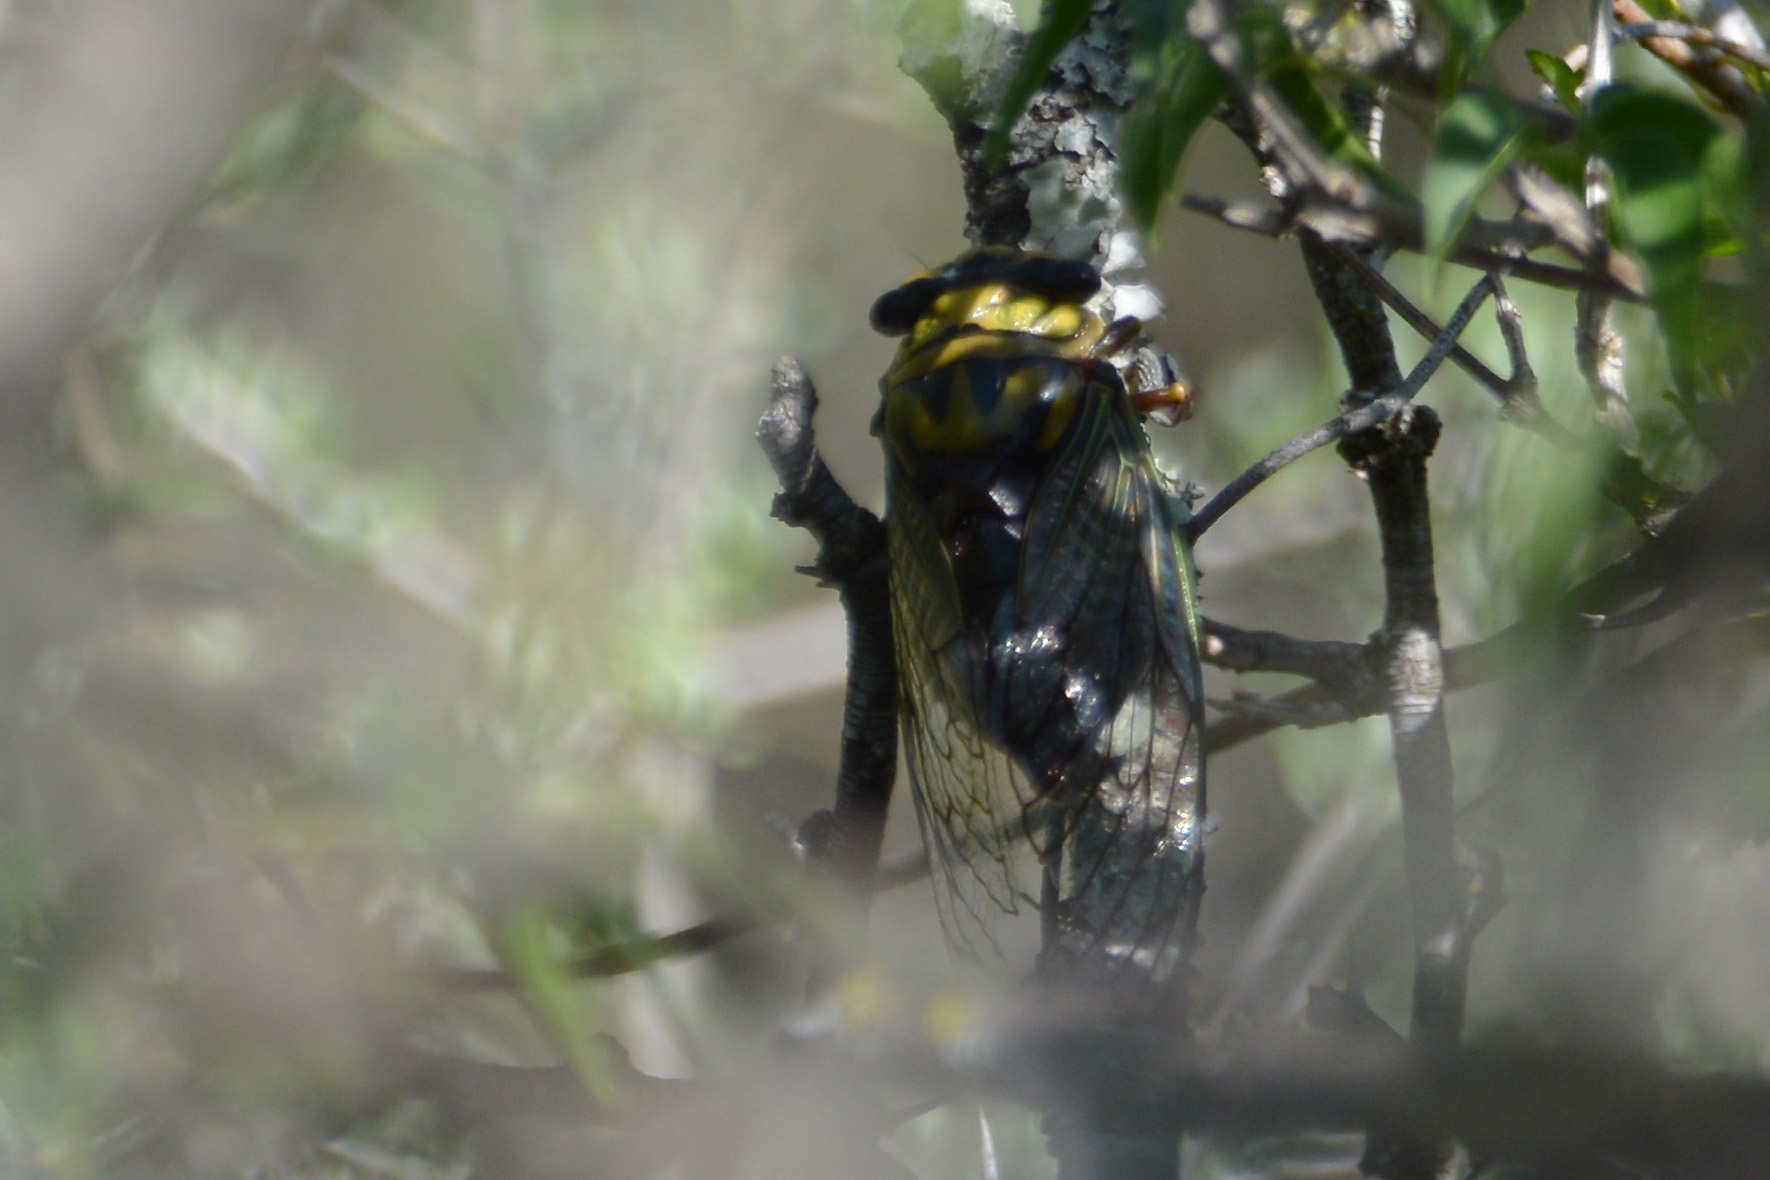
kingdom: Animalia
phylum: Arthropoda
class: Insecta
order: Hemiptera
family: Cicadidae
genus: Guyalna
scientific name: Guyalna bonaerensis
